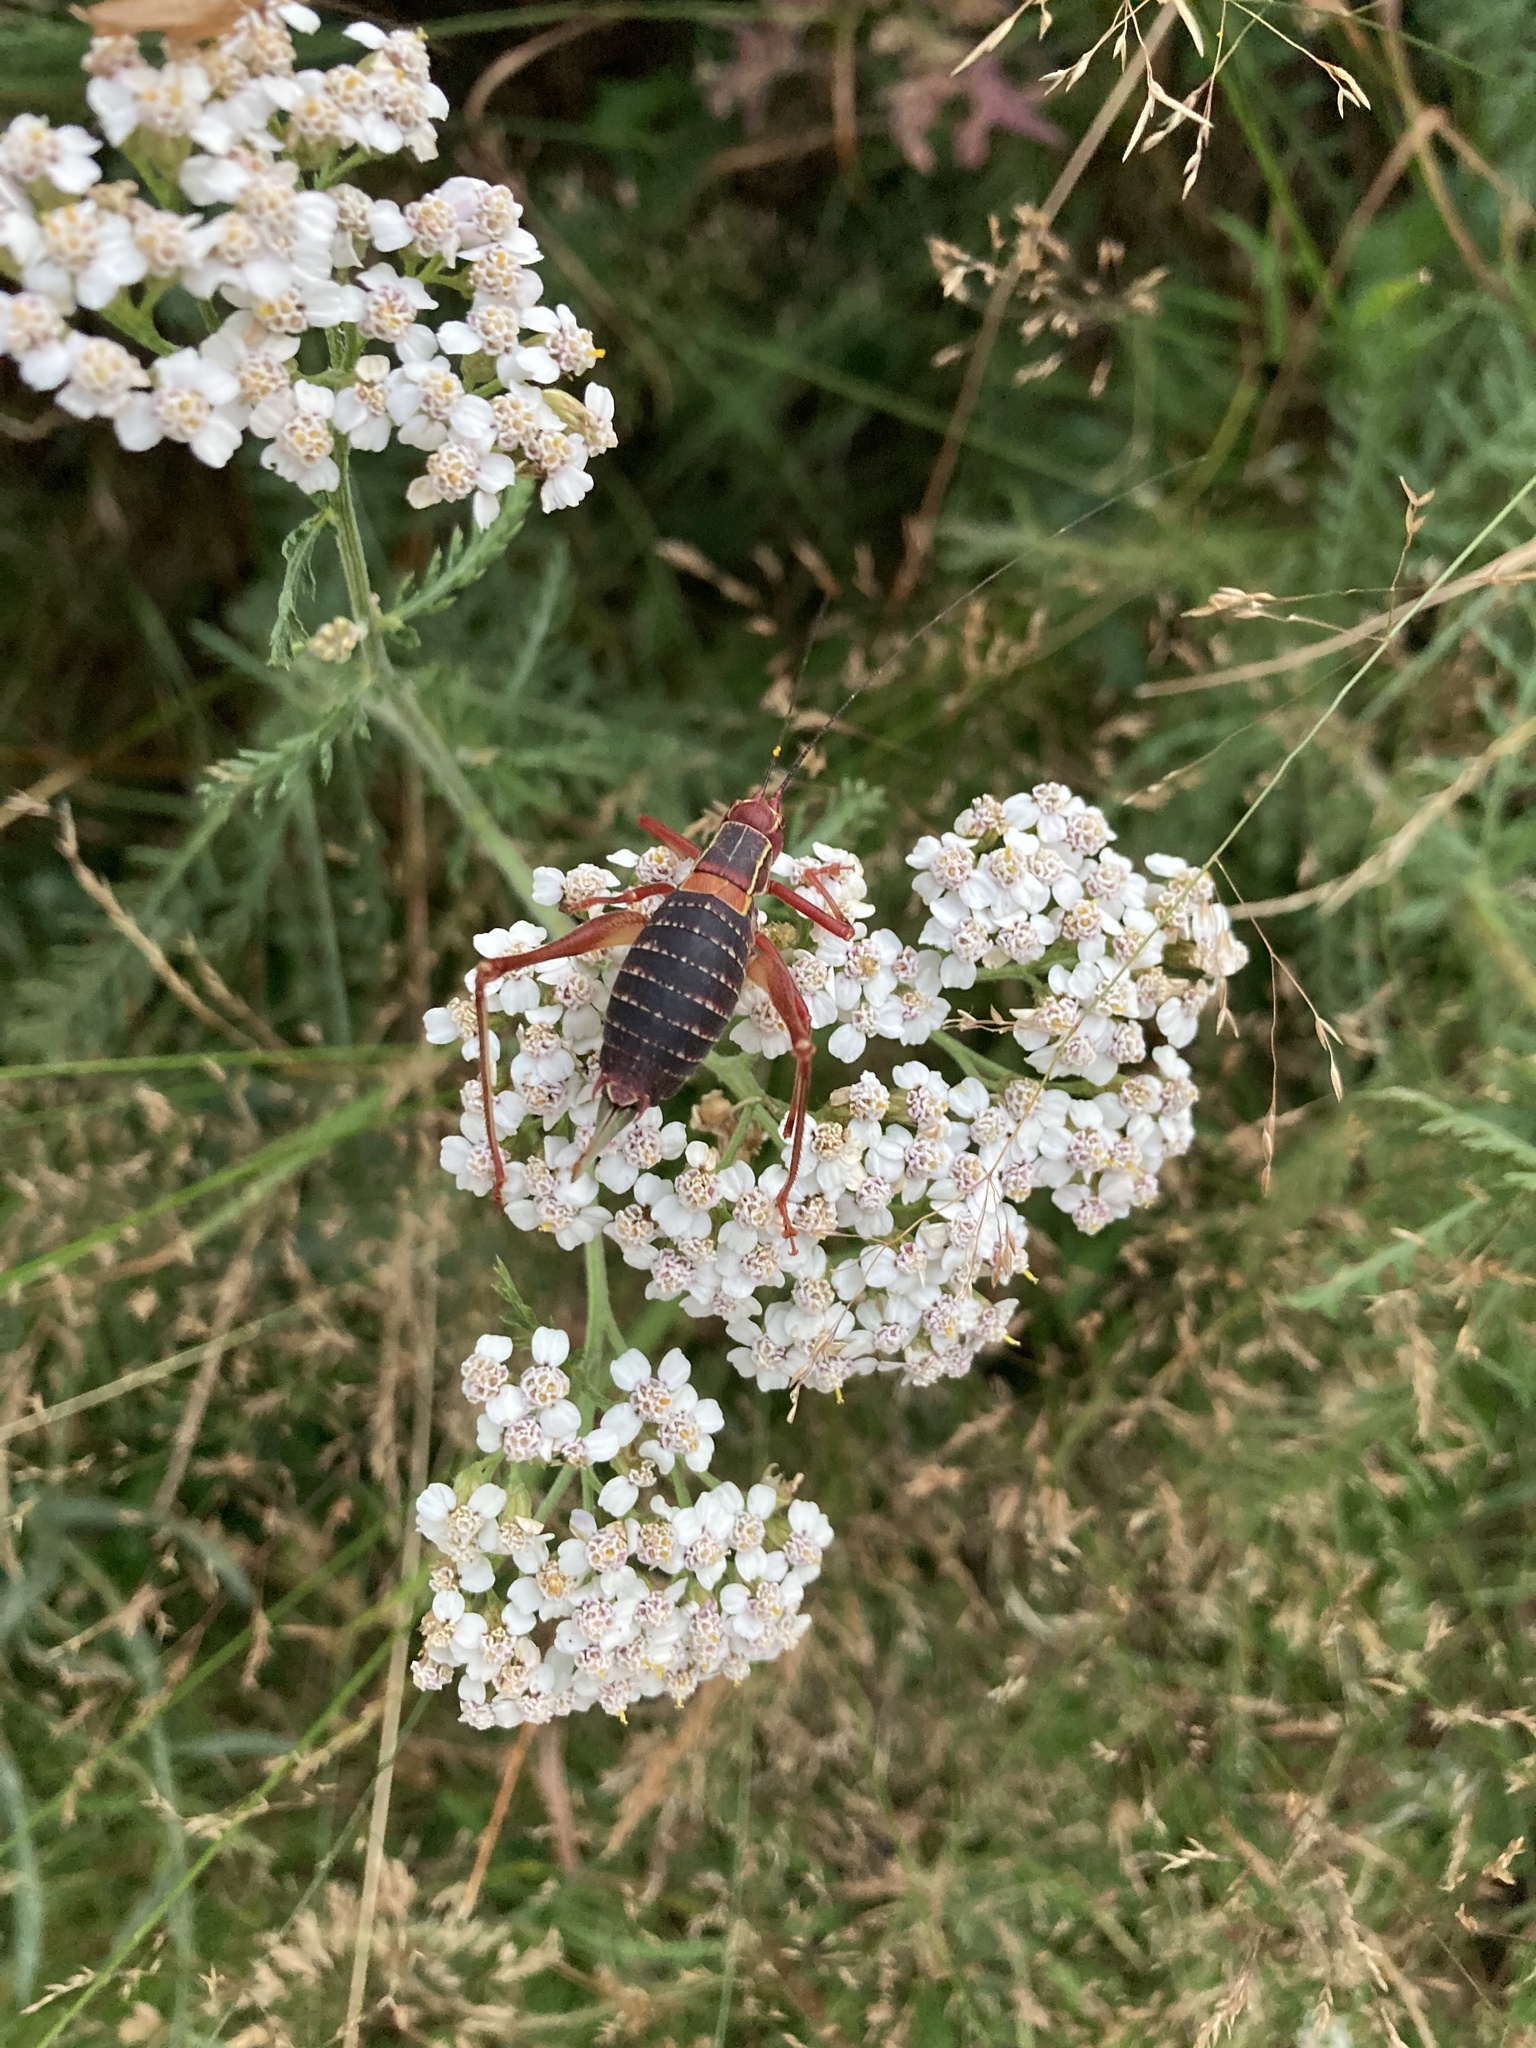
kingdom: Animalia
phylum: Arthropoda
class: Insecta
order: Orthoptera
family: Tettigoniidae
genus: Barbitistes
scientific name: Barbitistes obtusus
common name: Alpine saw bush-cricket
